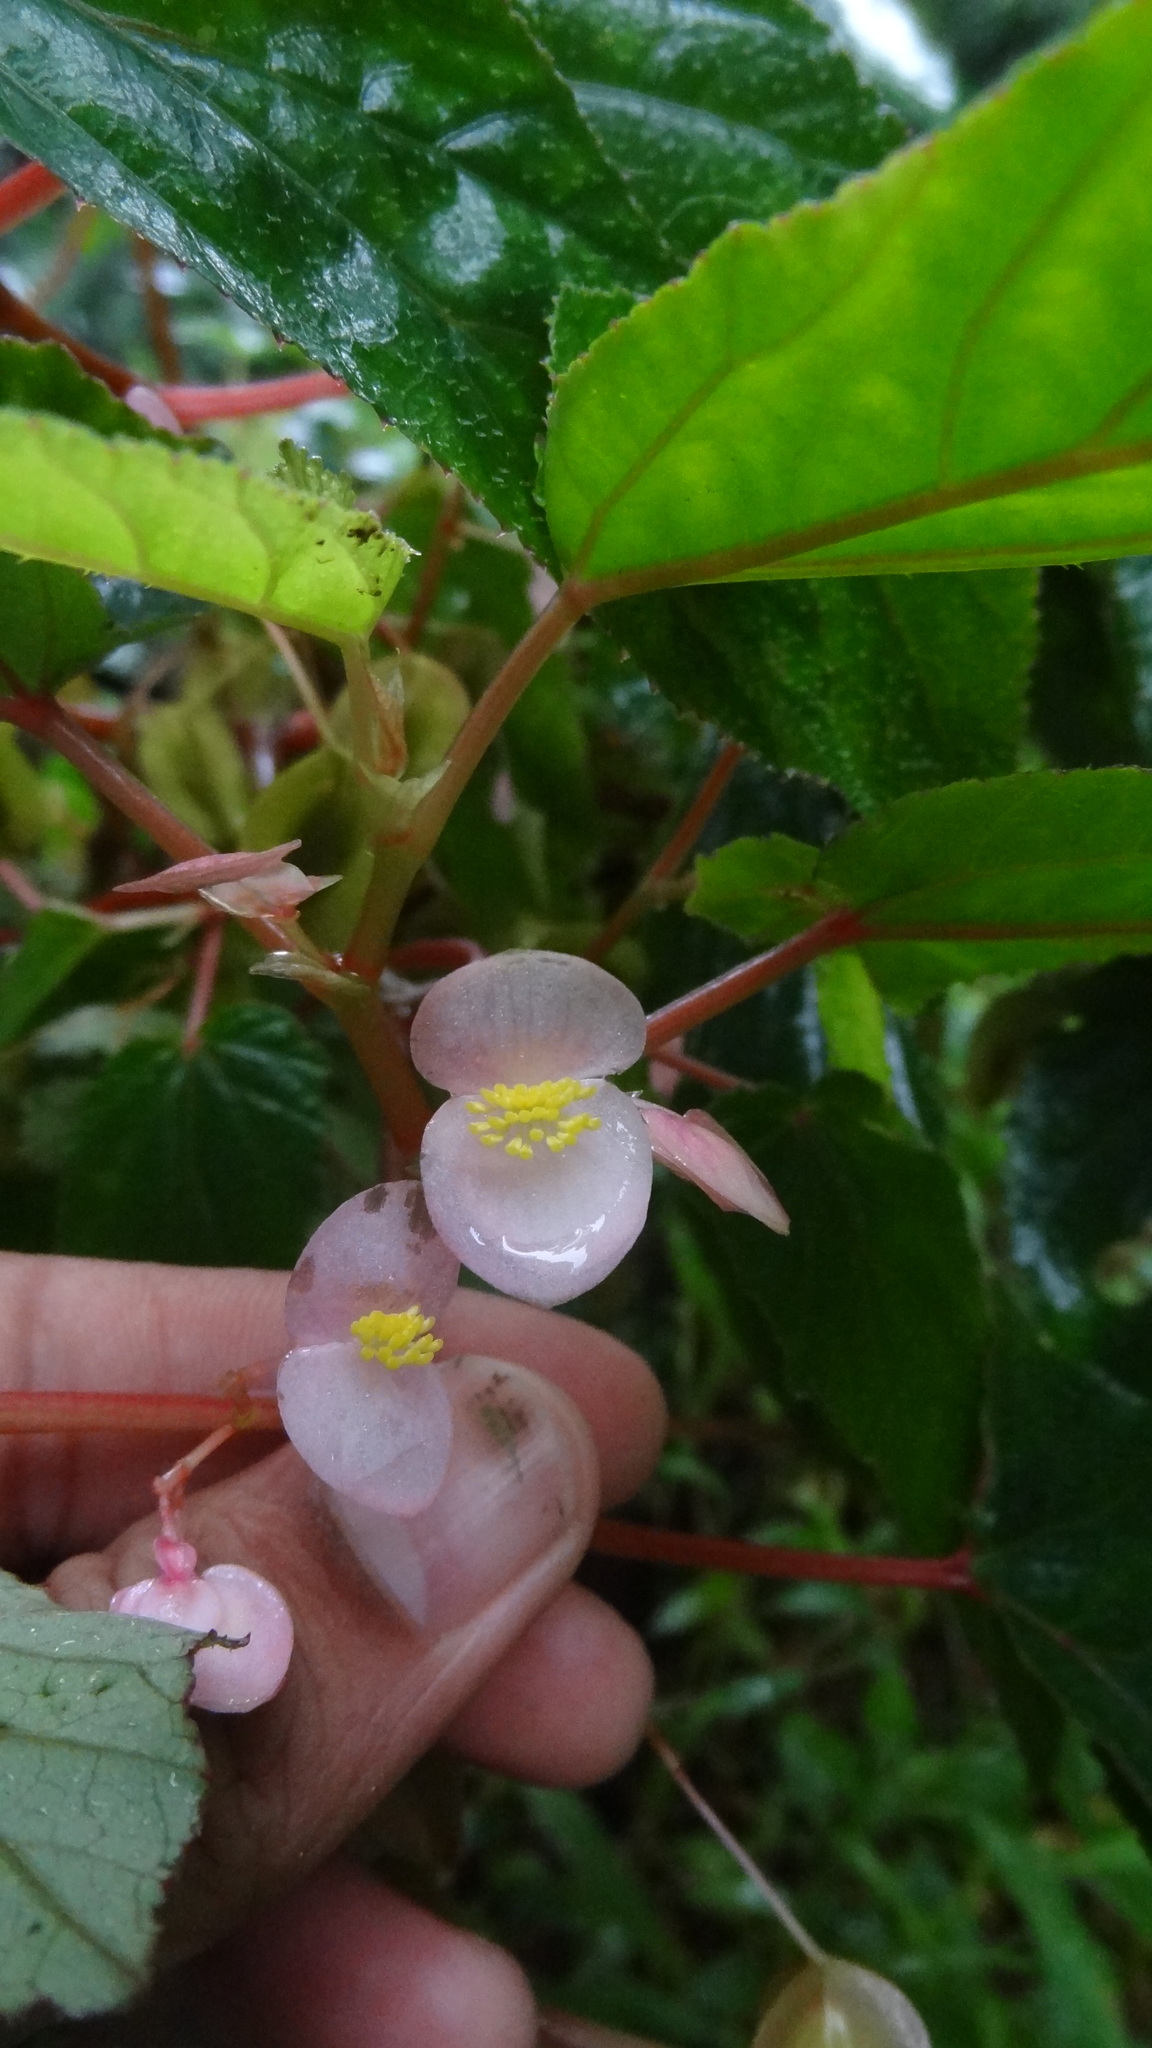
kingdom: Plantae
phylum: Tracheophyta
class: Magnoliopsida
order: Cucurbitales
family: Begoniaceae
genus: Begonia
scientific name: Begonia malabarica
